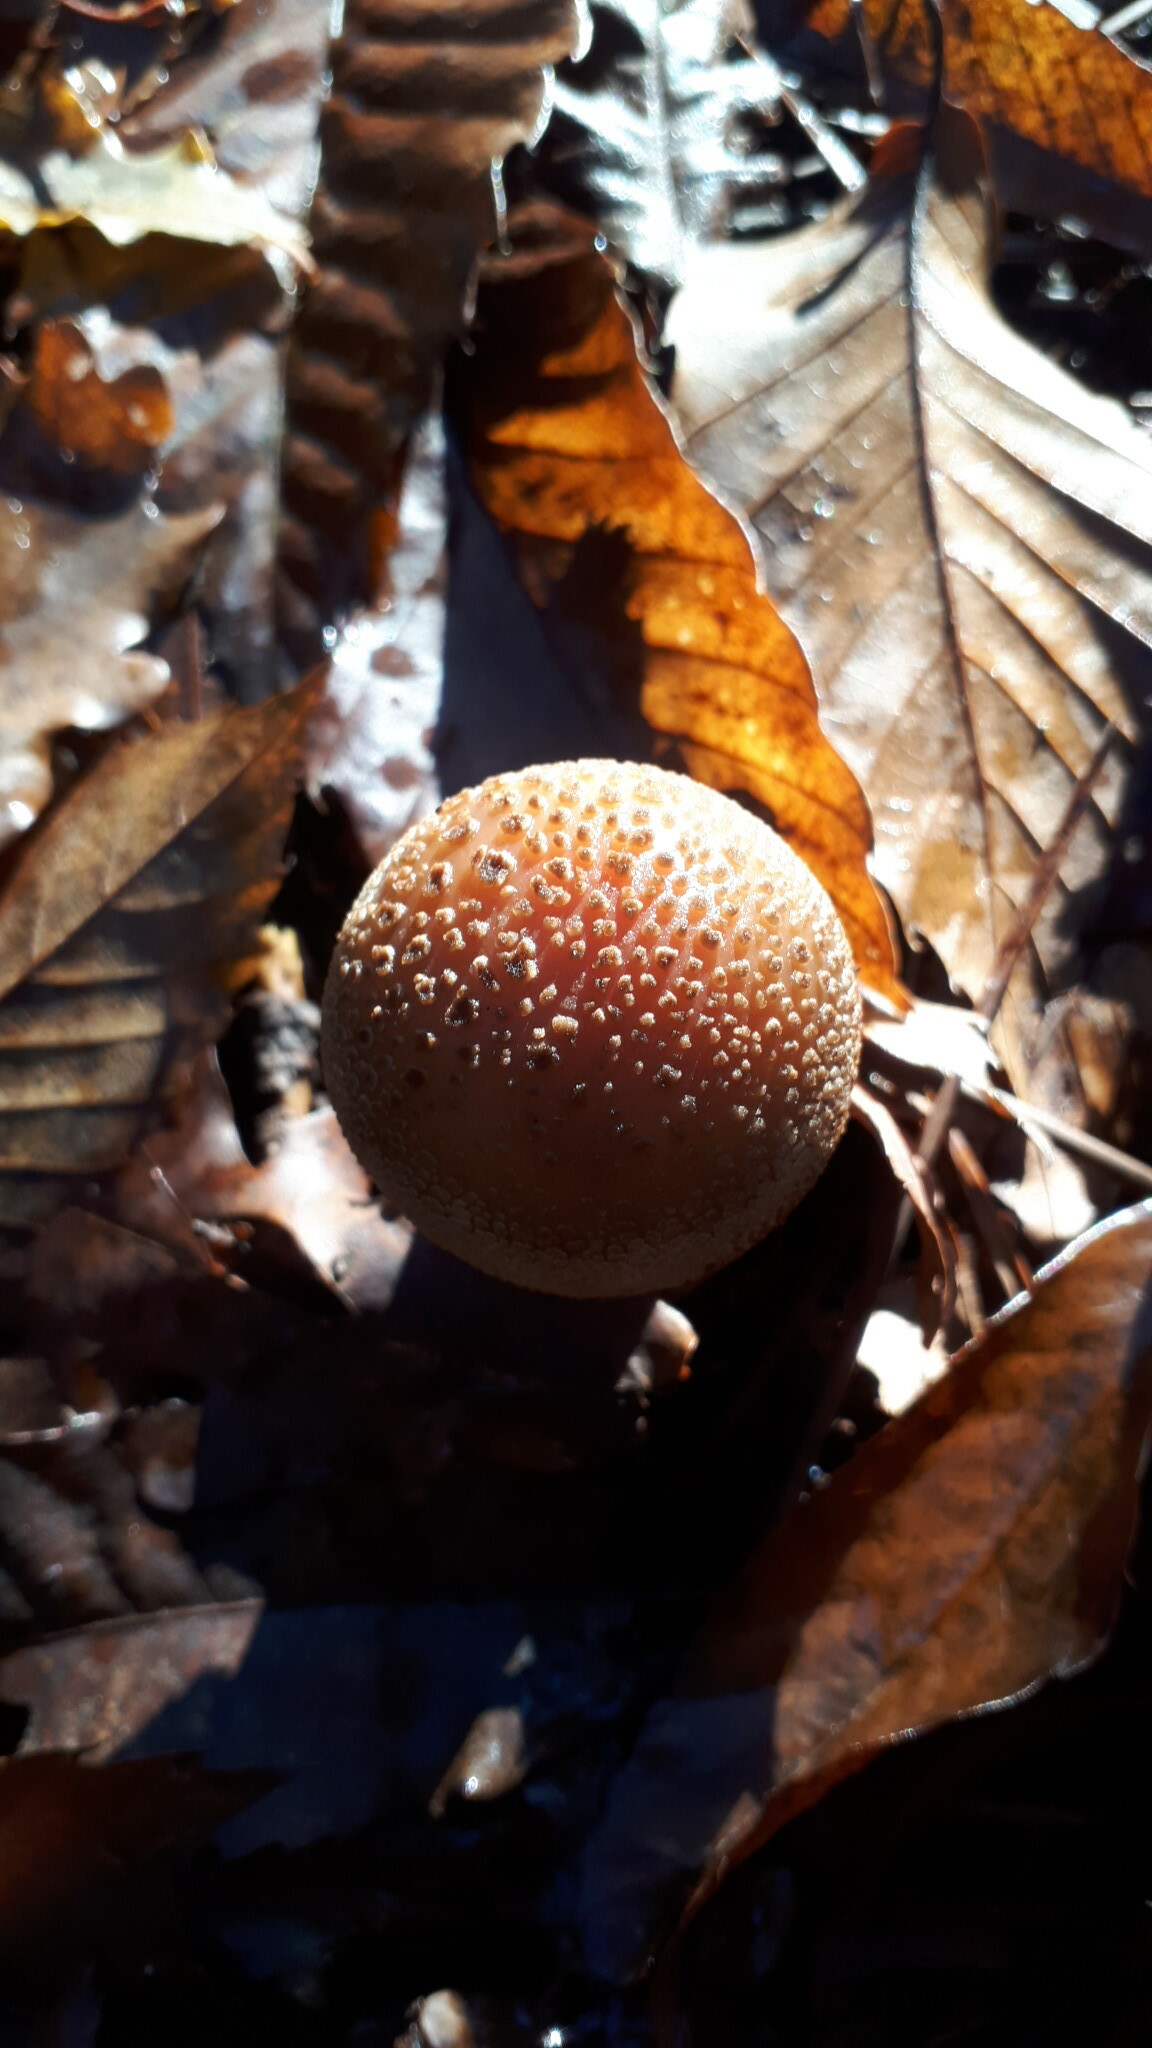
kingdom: Fungi
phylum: Basidiomycota
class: Agaricomycetes
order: Agaricales
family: Amanitaceae
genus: Amanita
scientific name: Amanita rubescens
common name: Blusher
